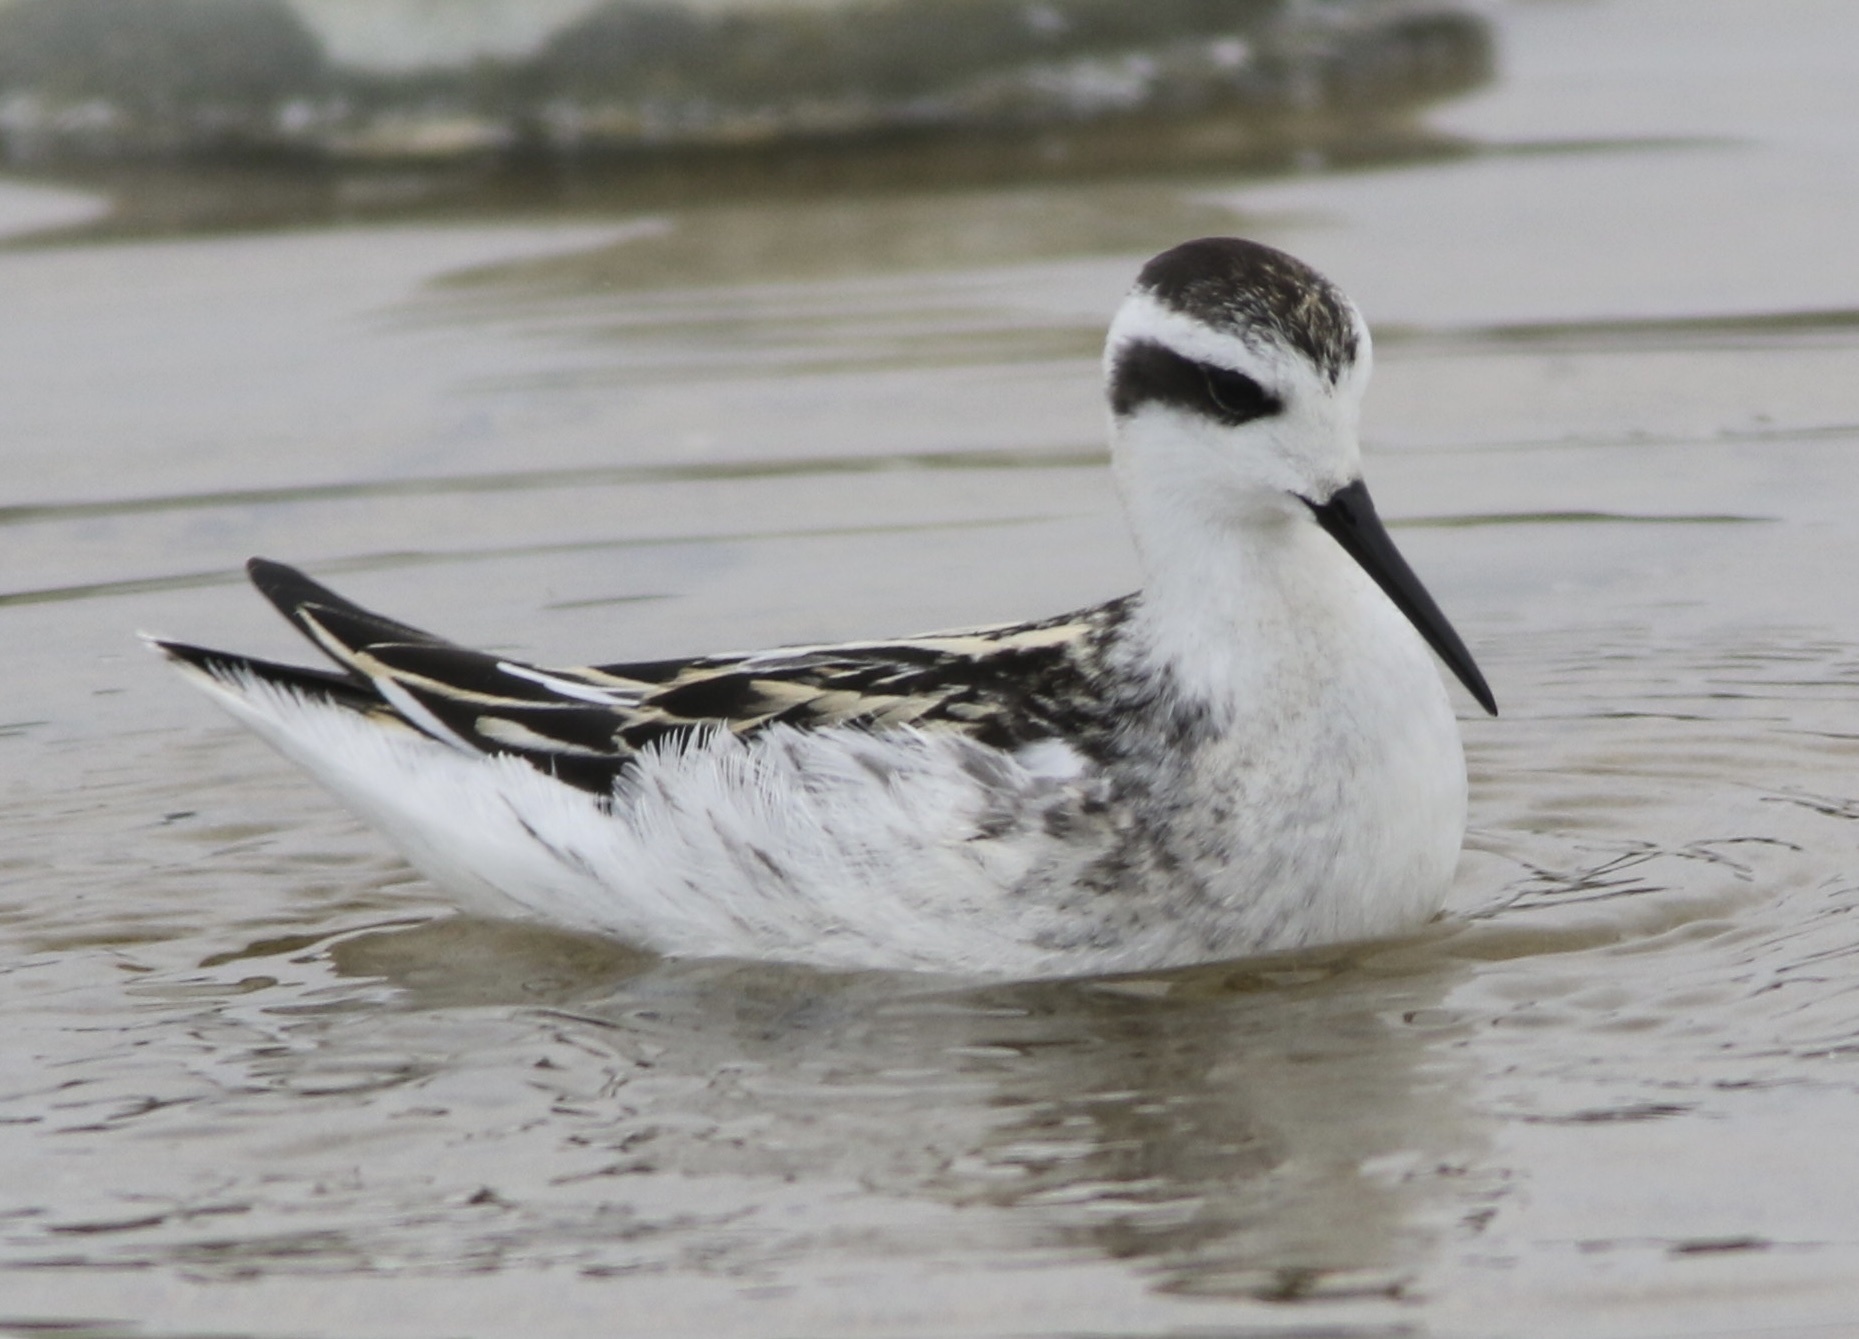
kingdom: Animalia
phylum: Chordata
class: Aves
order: Charadriiformes
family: Scolopacidae
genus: Phalaropus
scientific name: Phalaropus lobatus
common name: Red-necked phalarope
